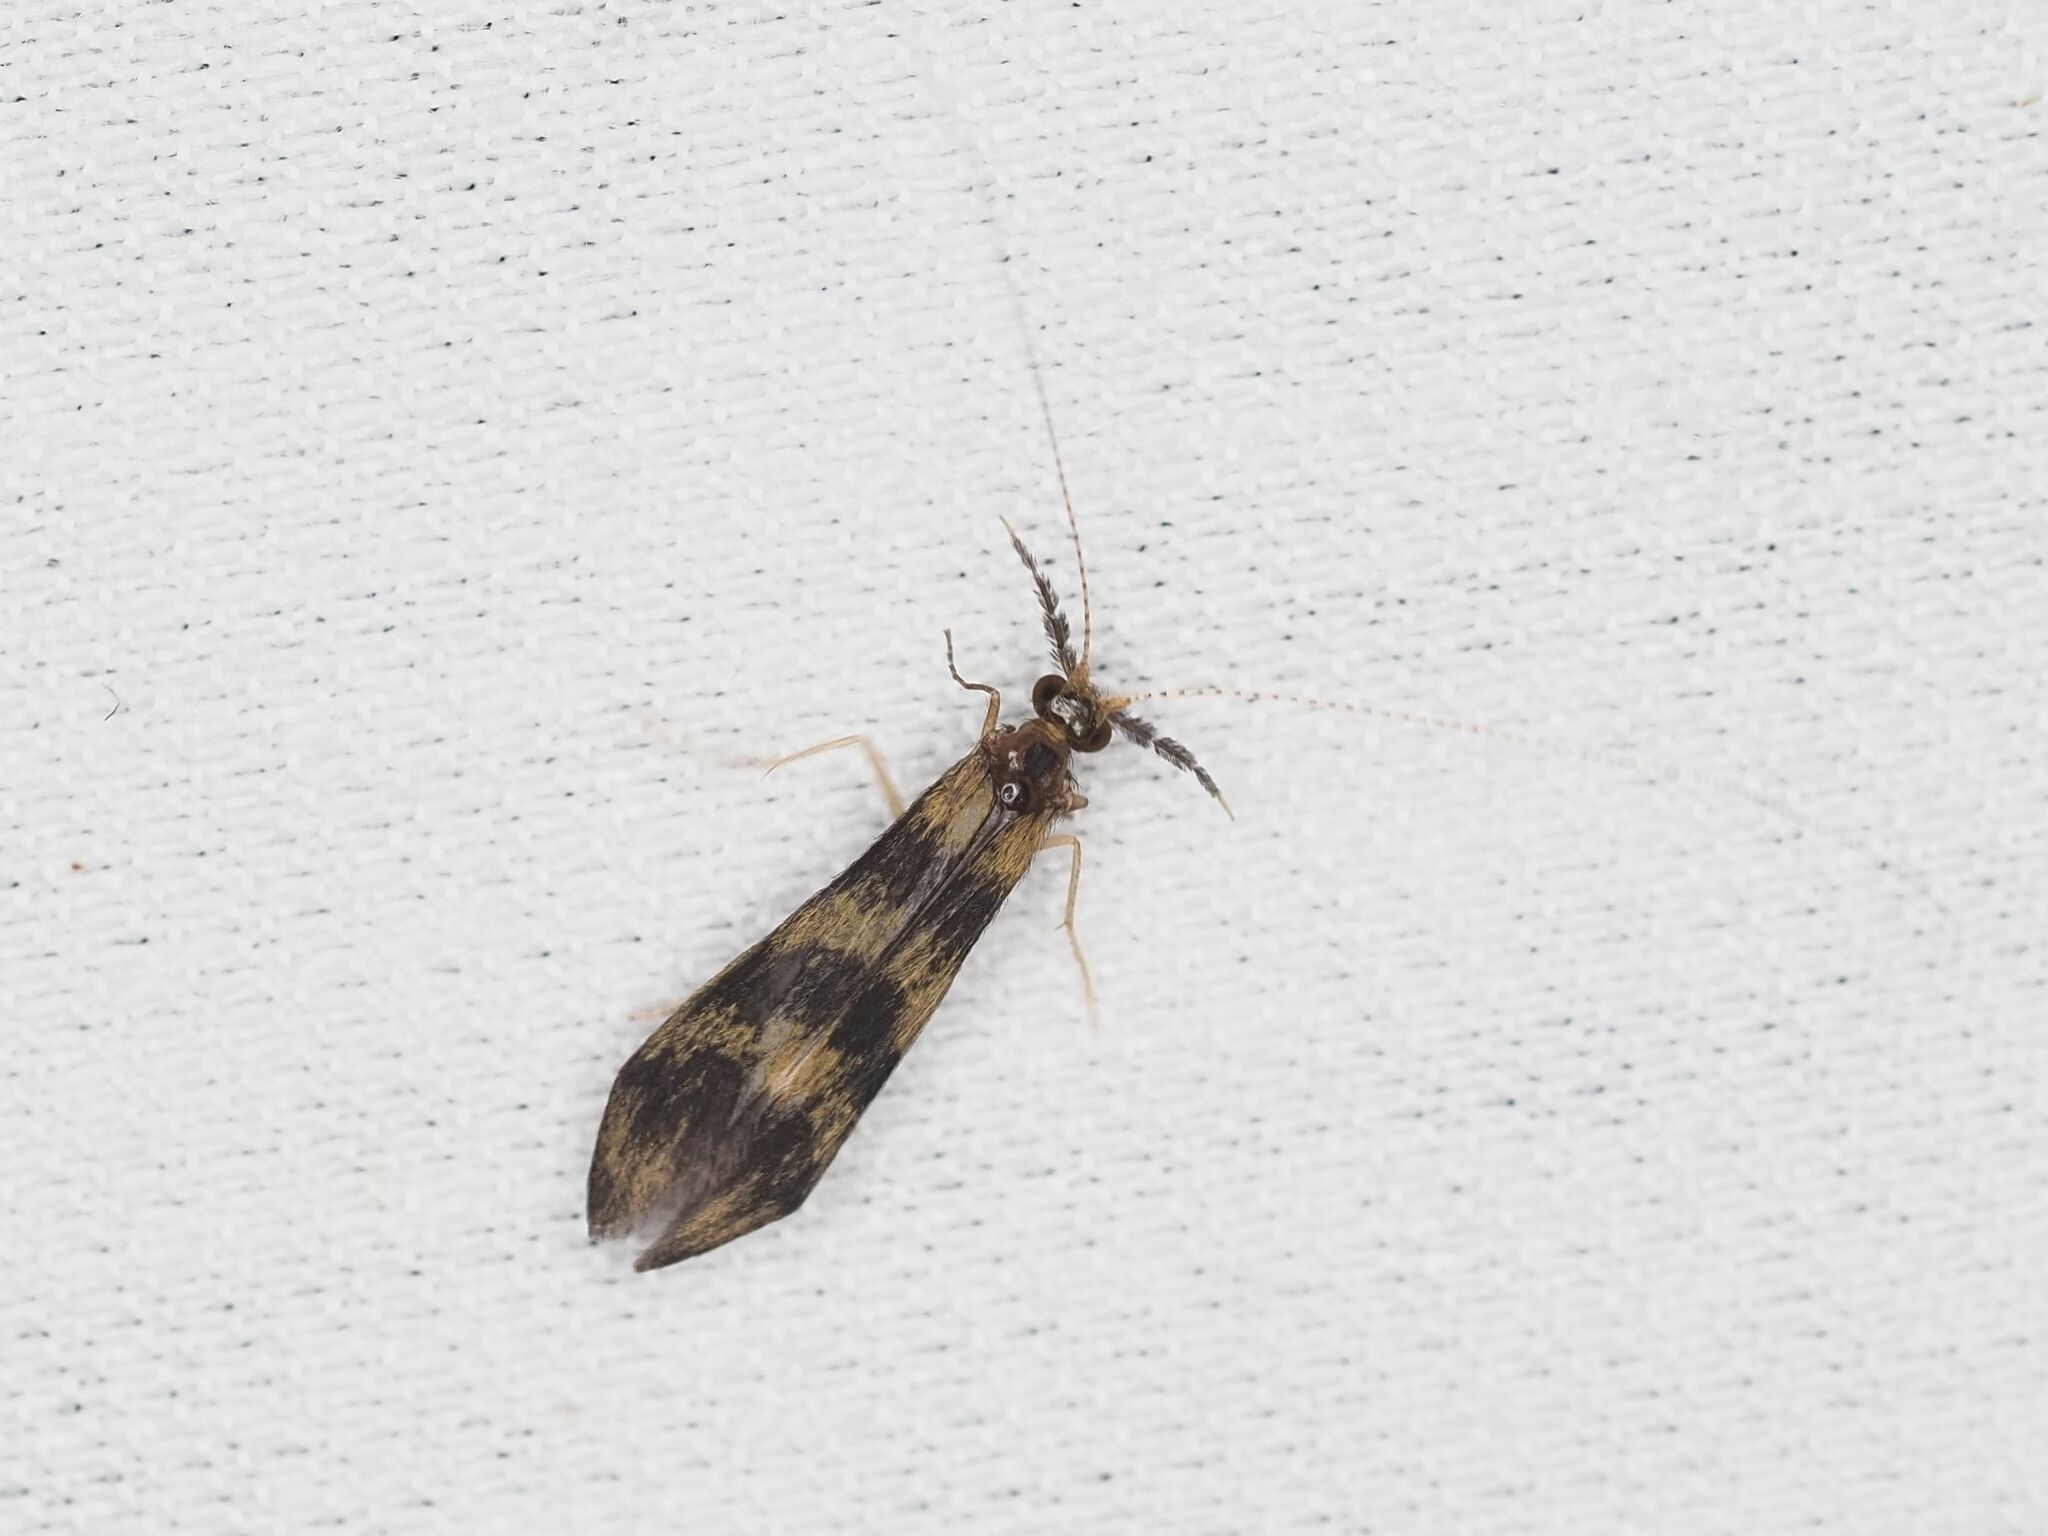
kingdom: Animalia
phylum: Arthropoda
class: Insecta
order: Trichoptera
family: Leptoceridae
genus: Mystacides
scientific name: Mystacides longicornis
